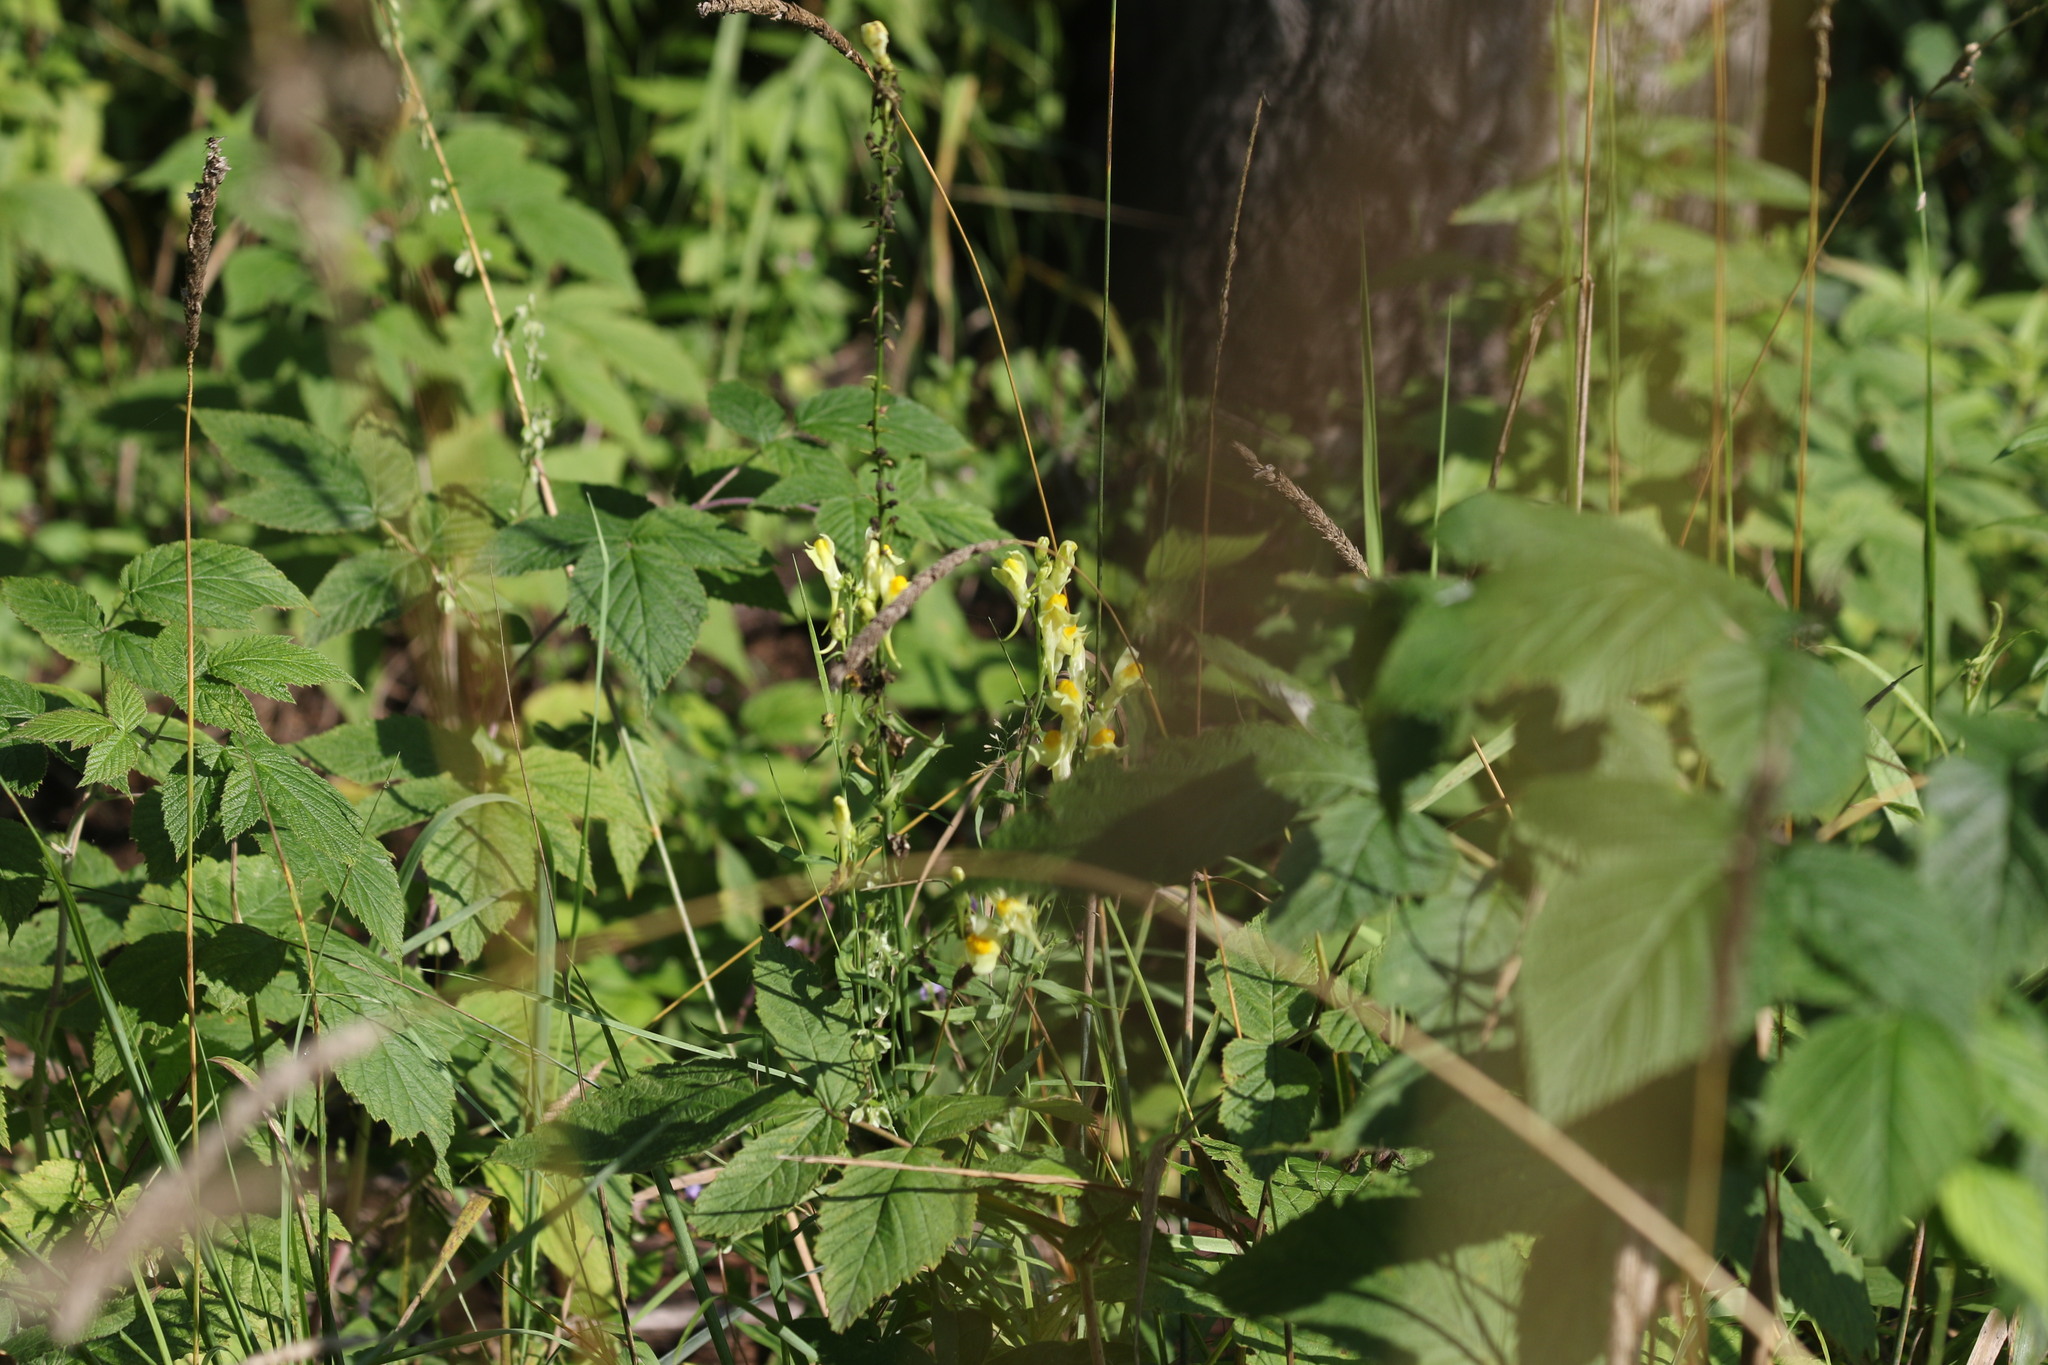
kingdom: Plantae
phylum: Tracheophyta
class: Magnoliopsida
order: Lamiales
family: Plantaginaceae
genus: Linaria
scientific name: Linaria vulgaris
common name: Butter and eggs
